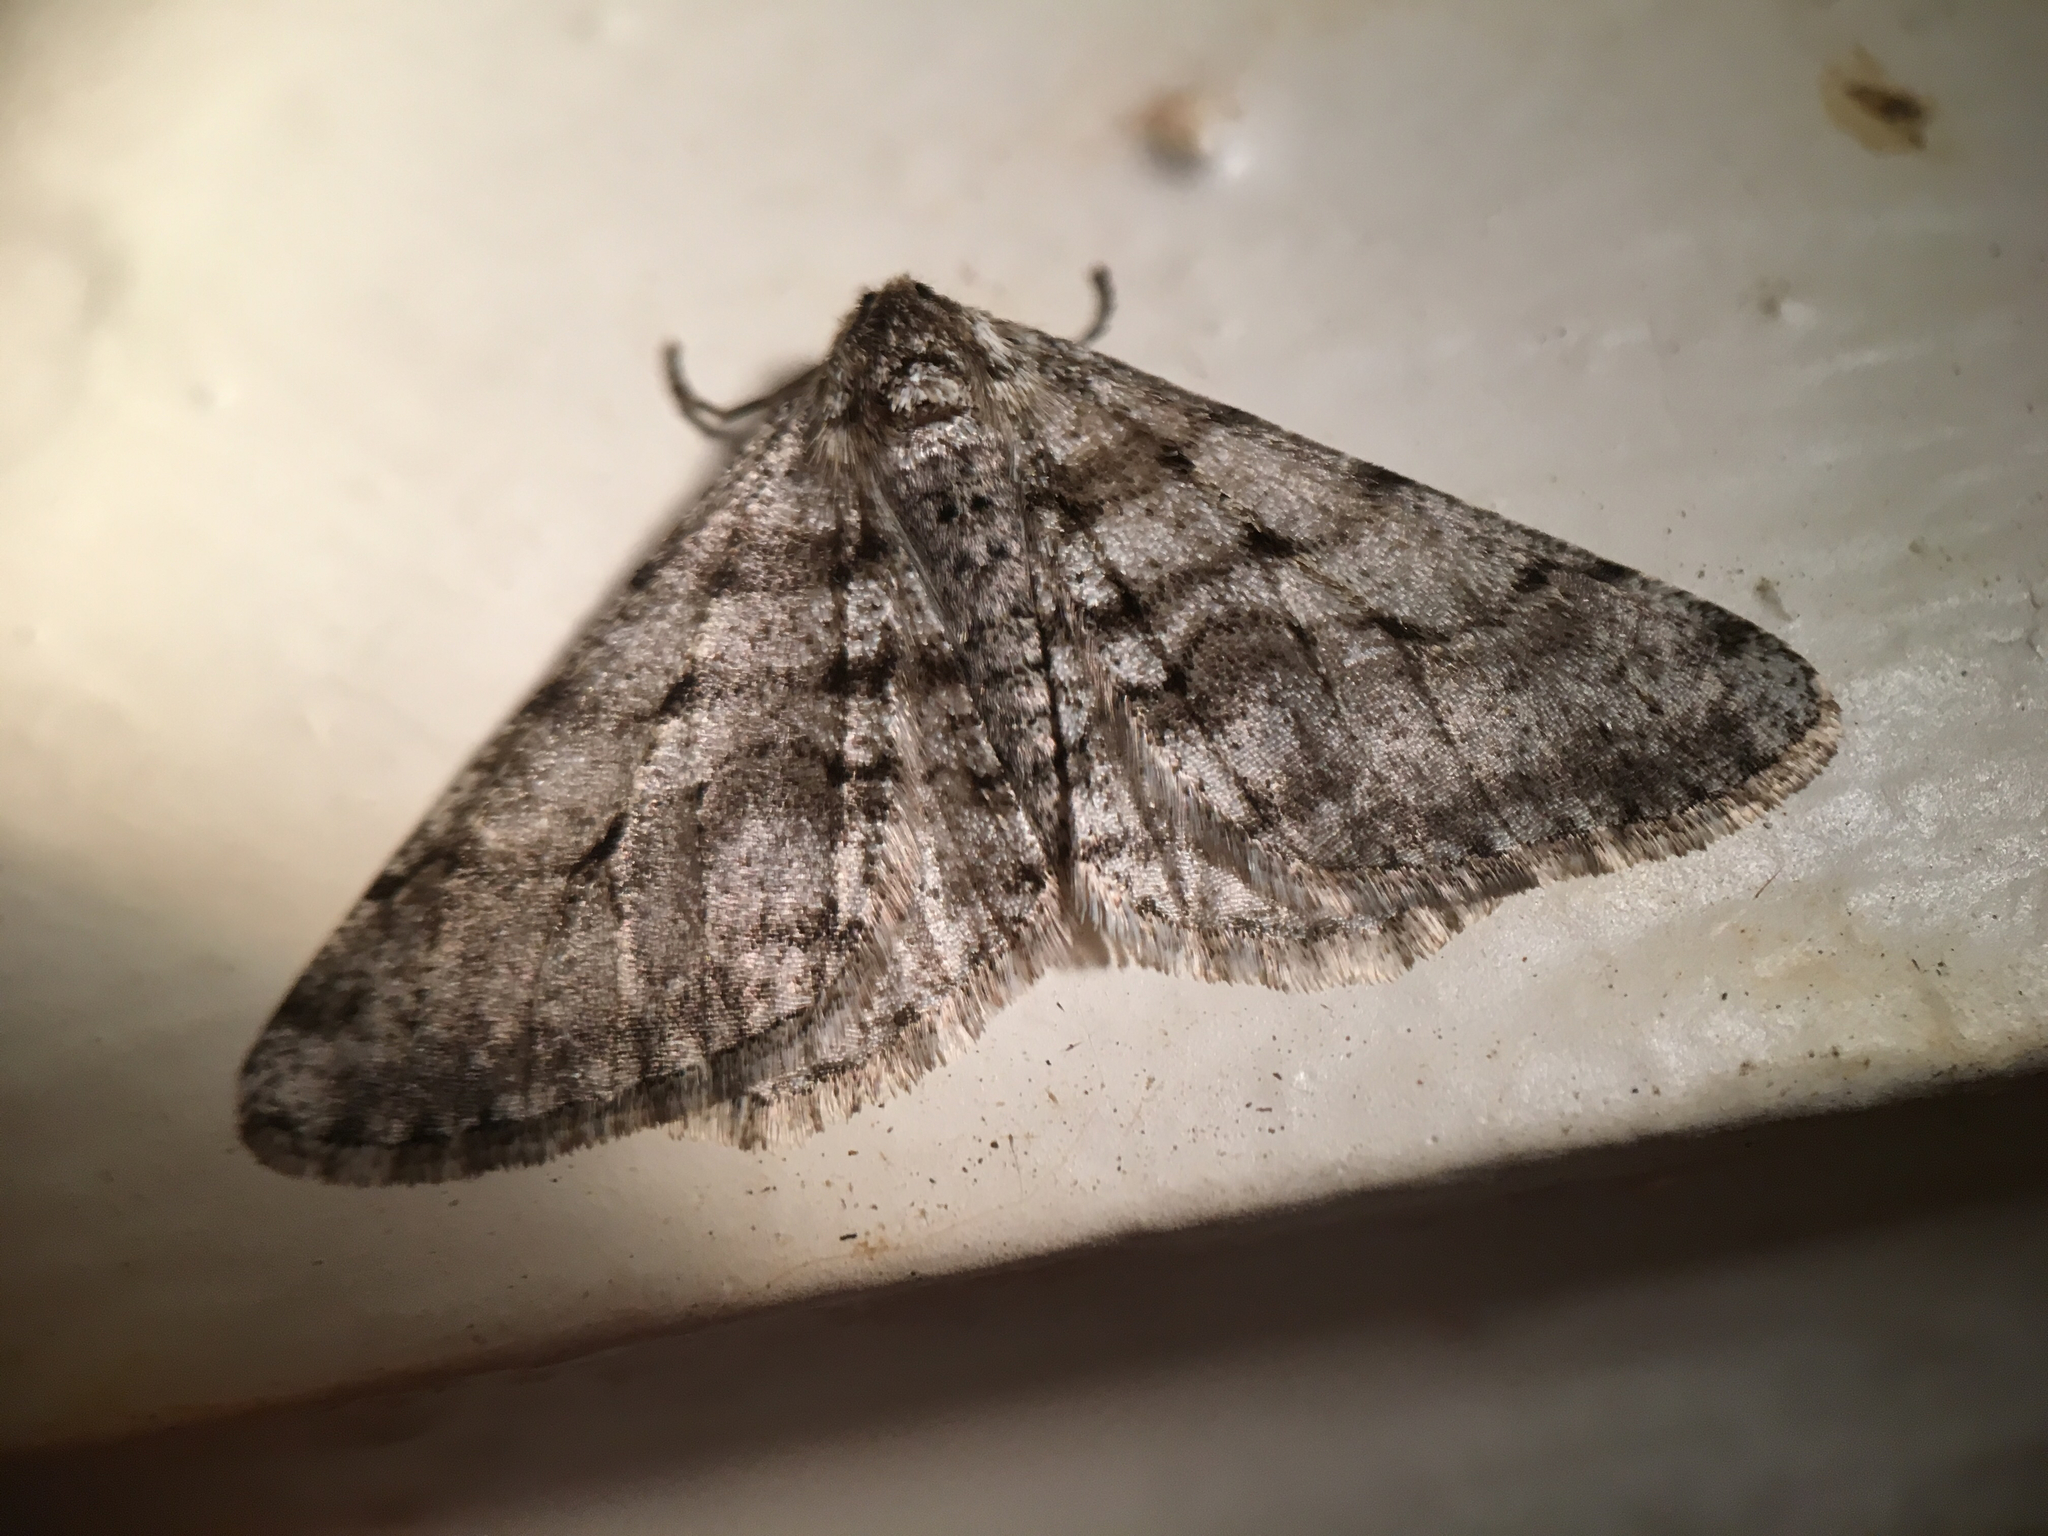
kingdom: Animalia
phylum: Arthropoda
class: Insecta
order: Lepidoptera
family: Geometridae
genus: Phigalia
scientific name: Phigalia titea
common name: Spiny looper
